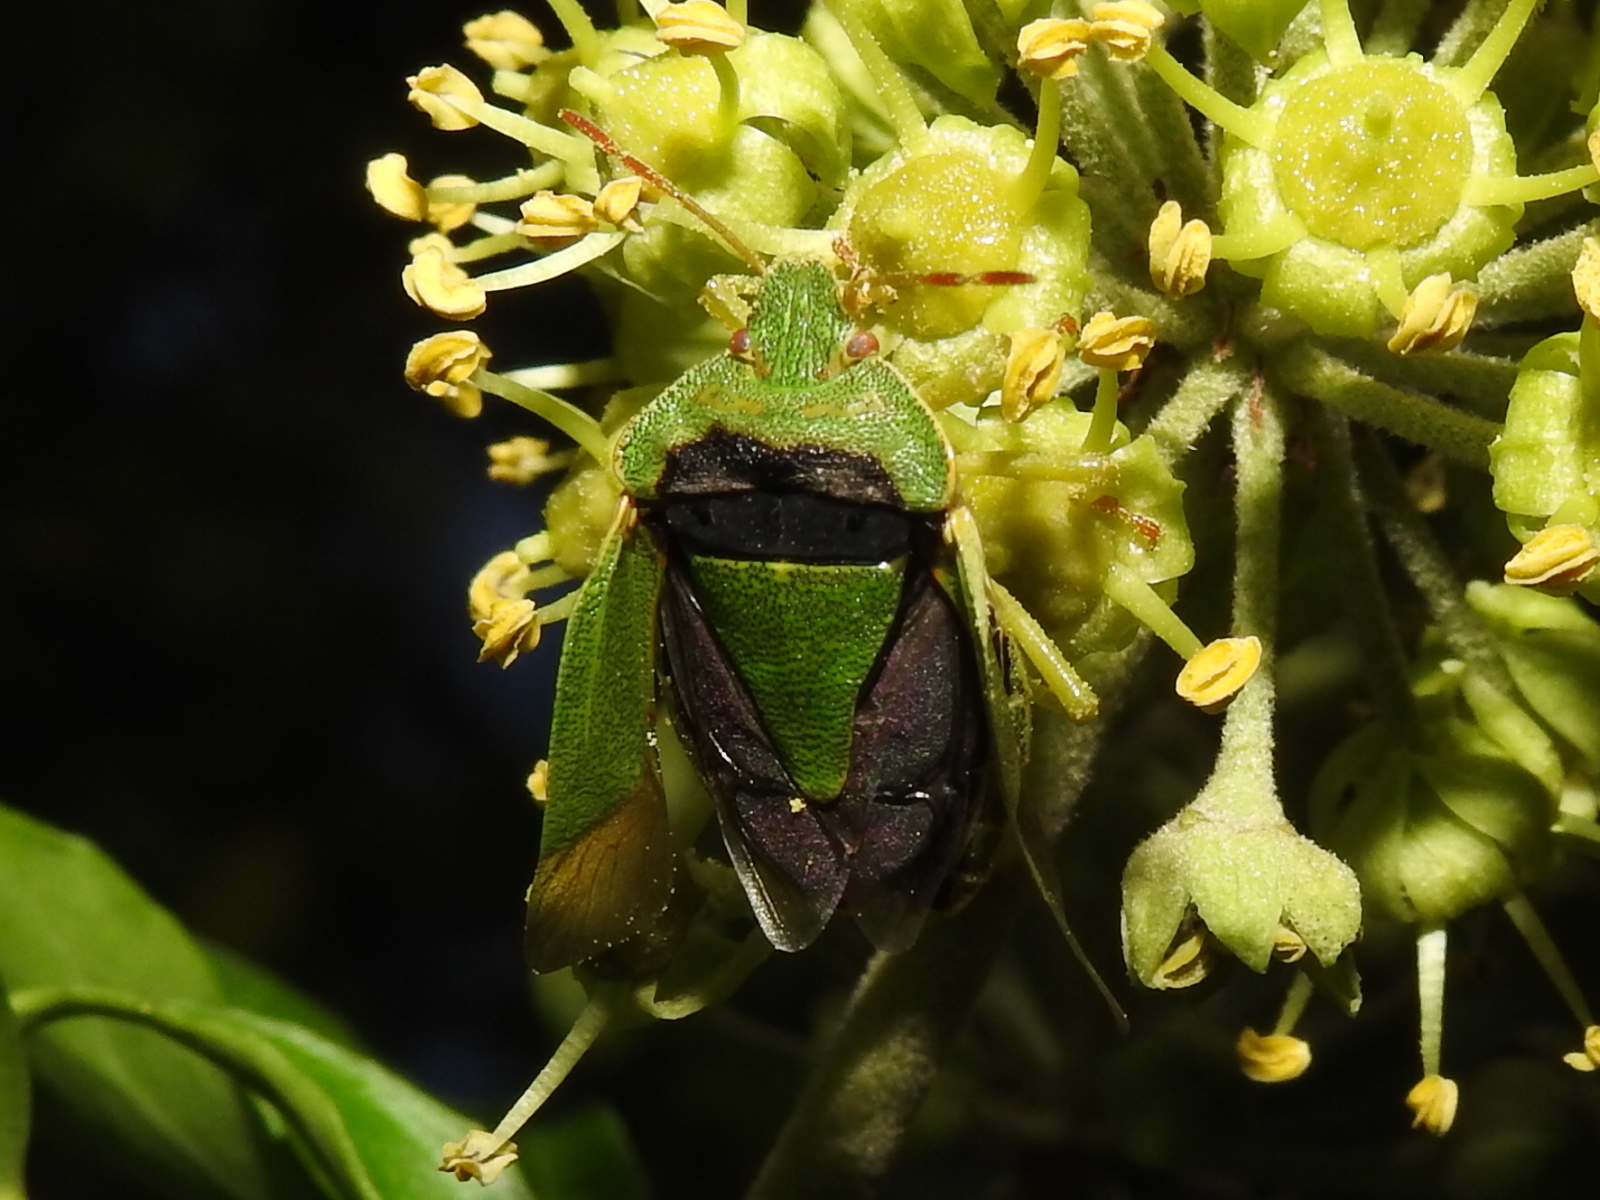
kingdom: Animalia
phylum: Arthropoda
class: Insecta
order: Hemiptera
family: Pentatomidae
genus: Palomena
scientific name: Palomena prasina
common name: Green shieldbug
